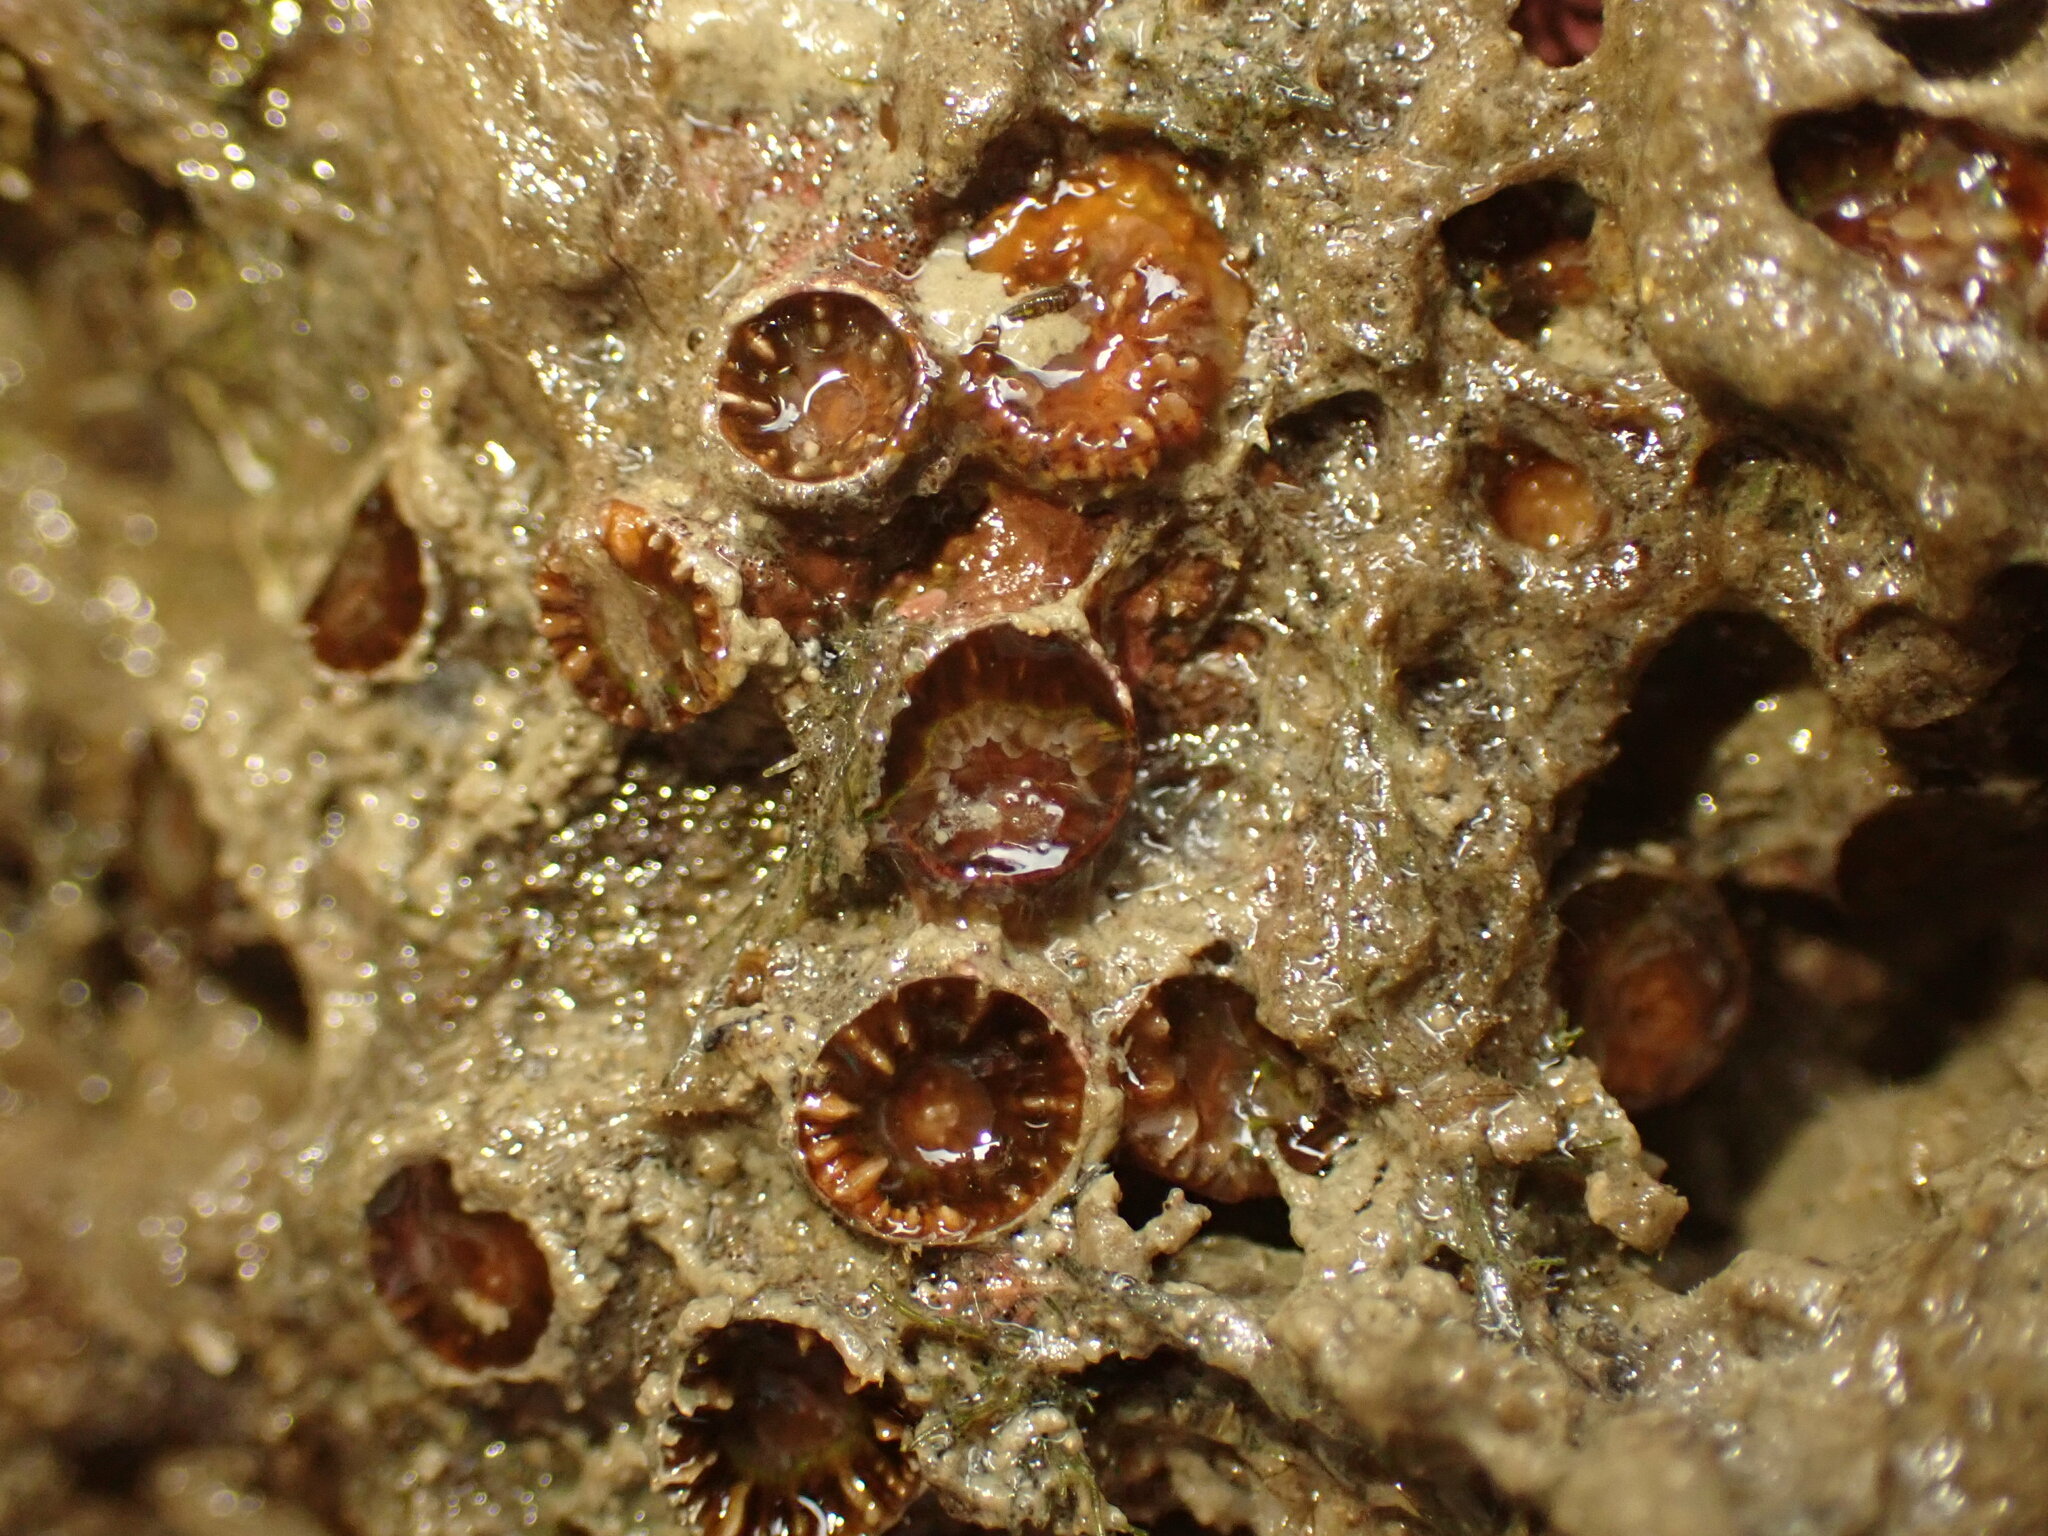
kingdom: Animalia
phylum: Cnidaria
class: Anthozoa
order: Scleractinia
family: Rhizangiidae
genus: Culicia
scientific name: Culicia rubeola
